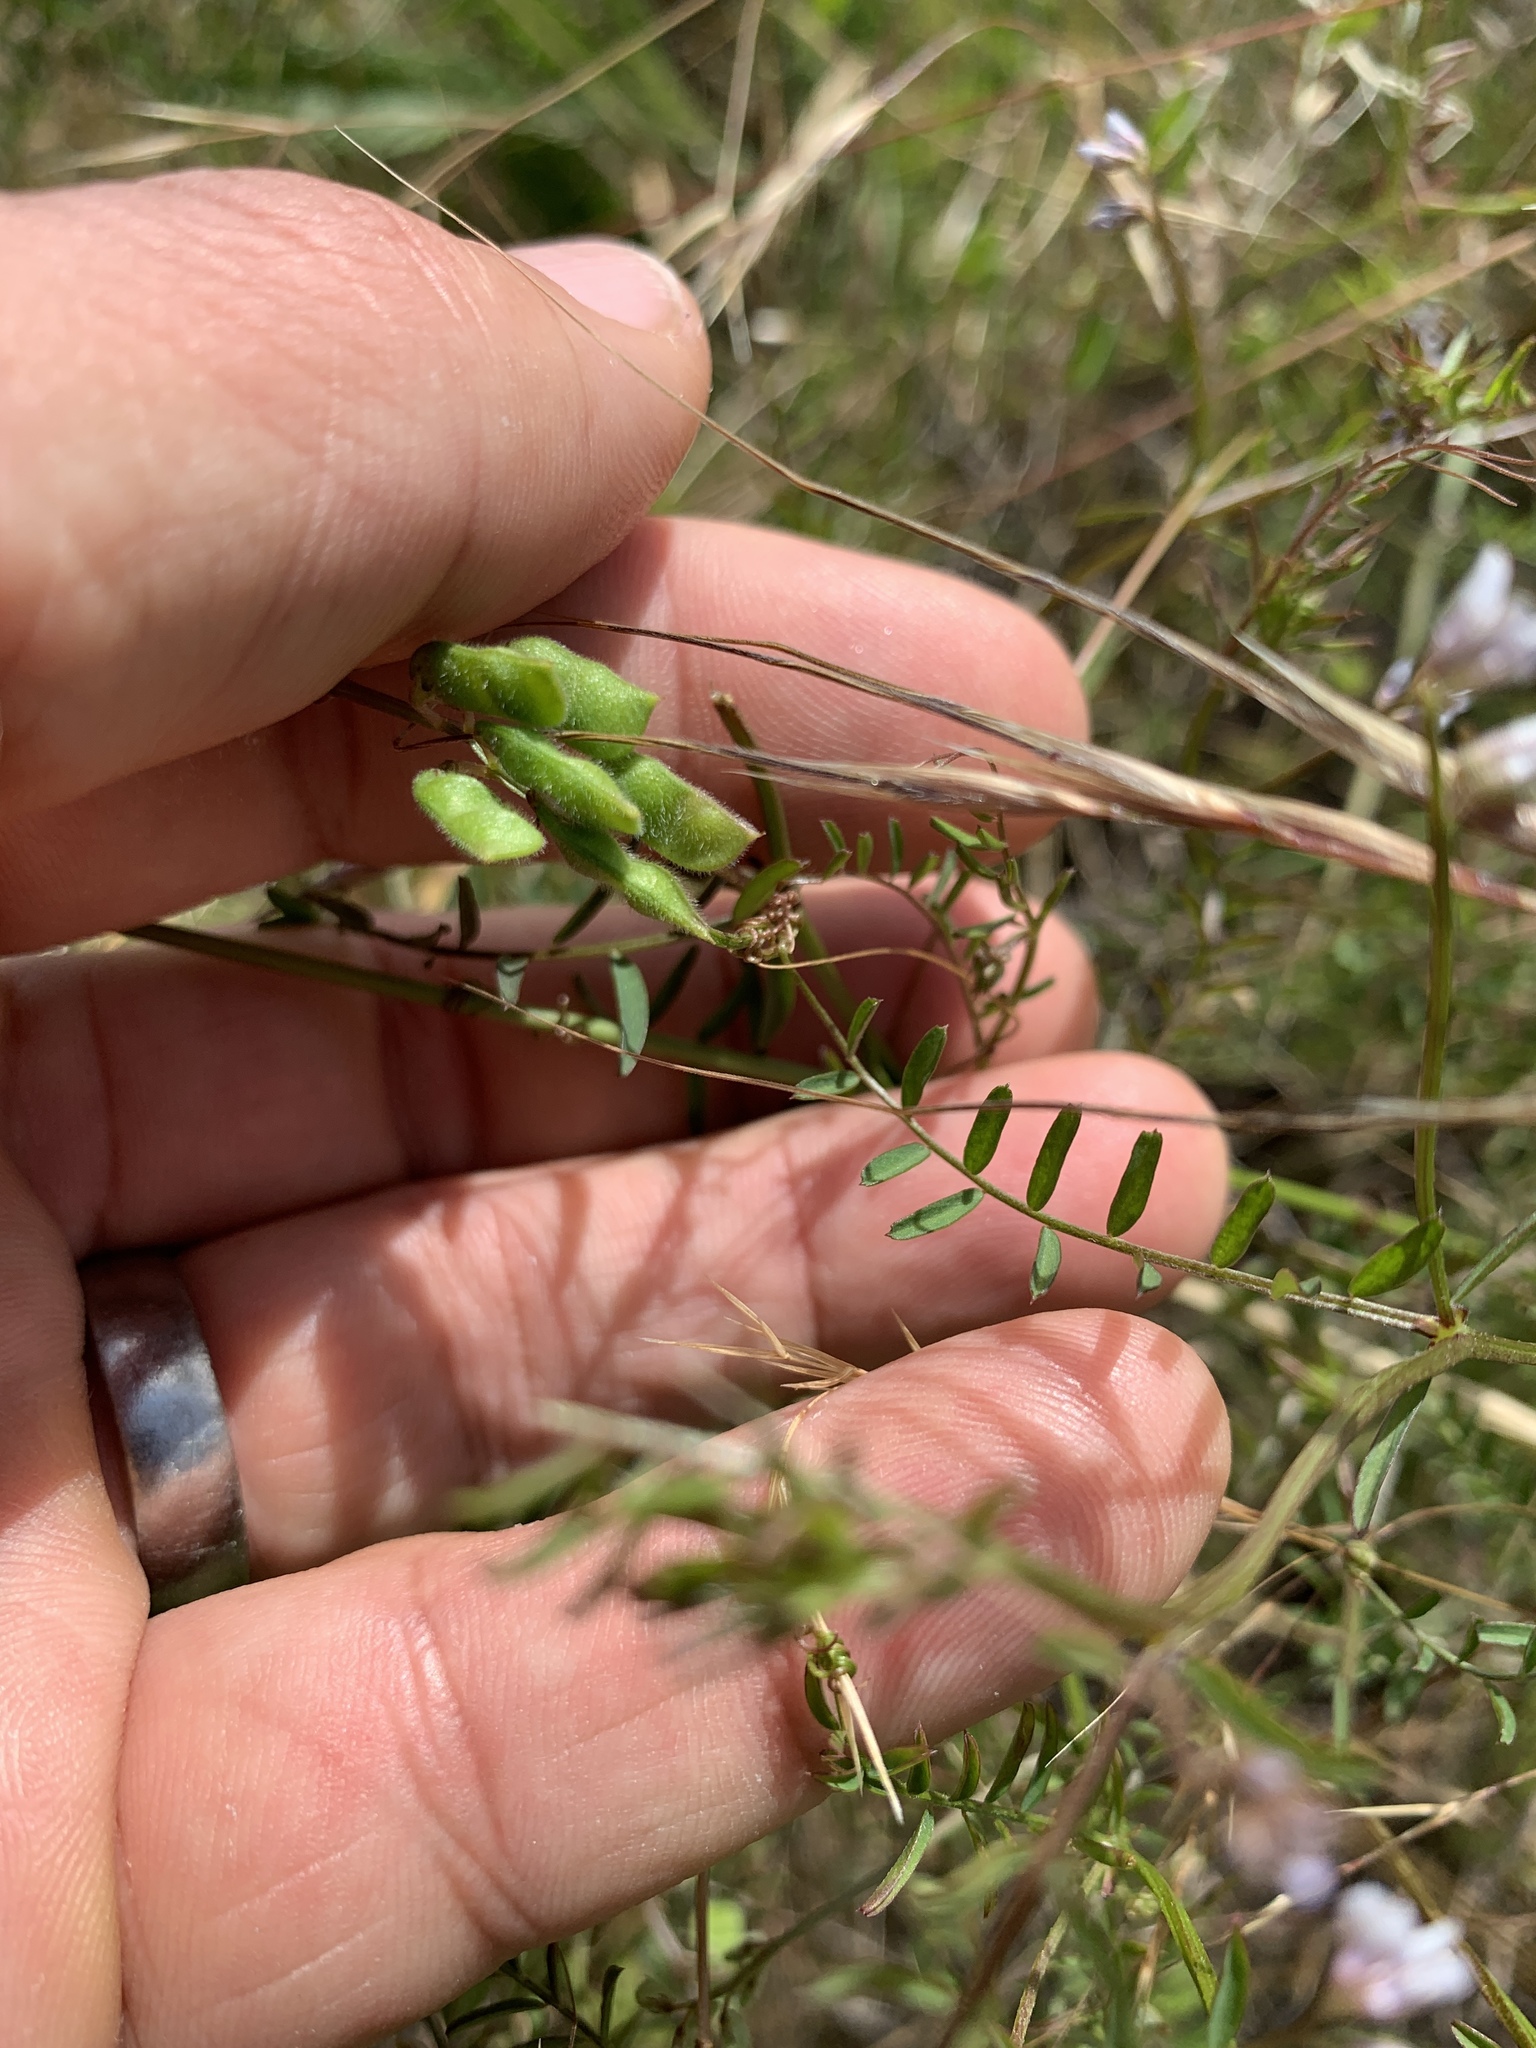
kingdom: Plantae
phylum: Tracheophyta
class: Magnoliopsida
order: Fabales
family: Fabaceae
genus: Vicia
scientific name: Vicia hirsuta
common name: Tiny vetch
